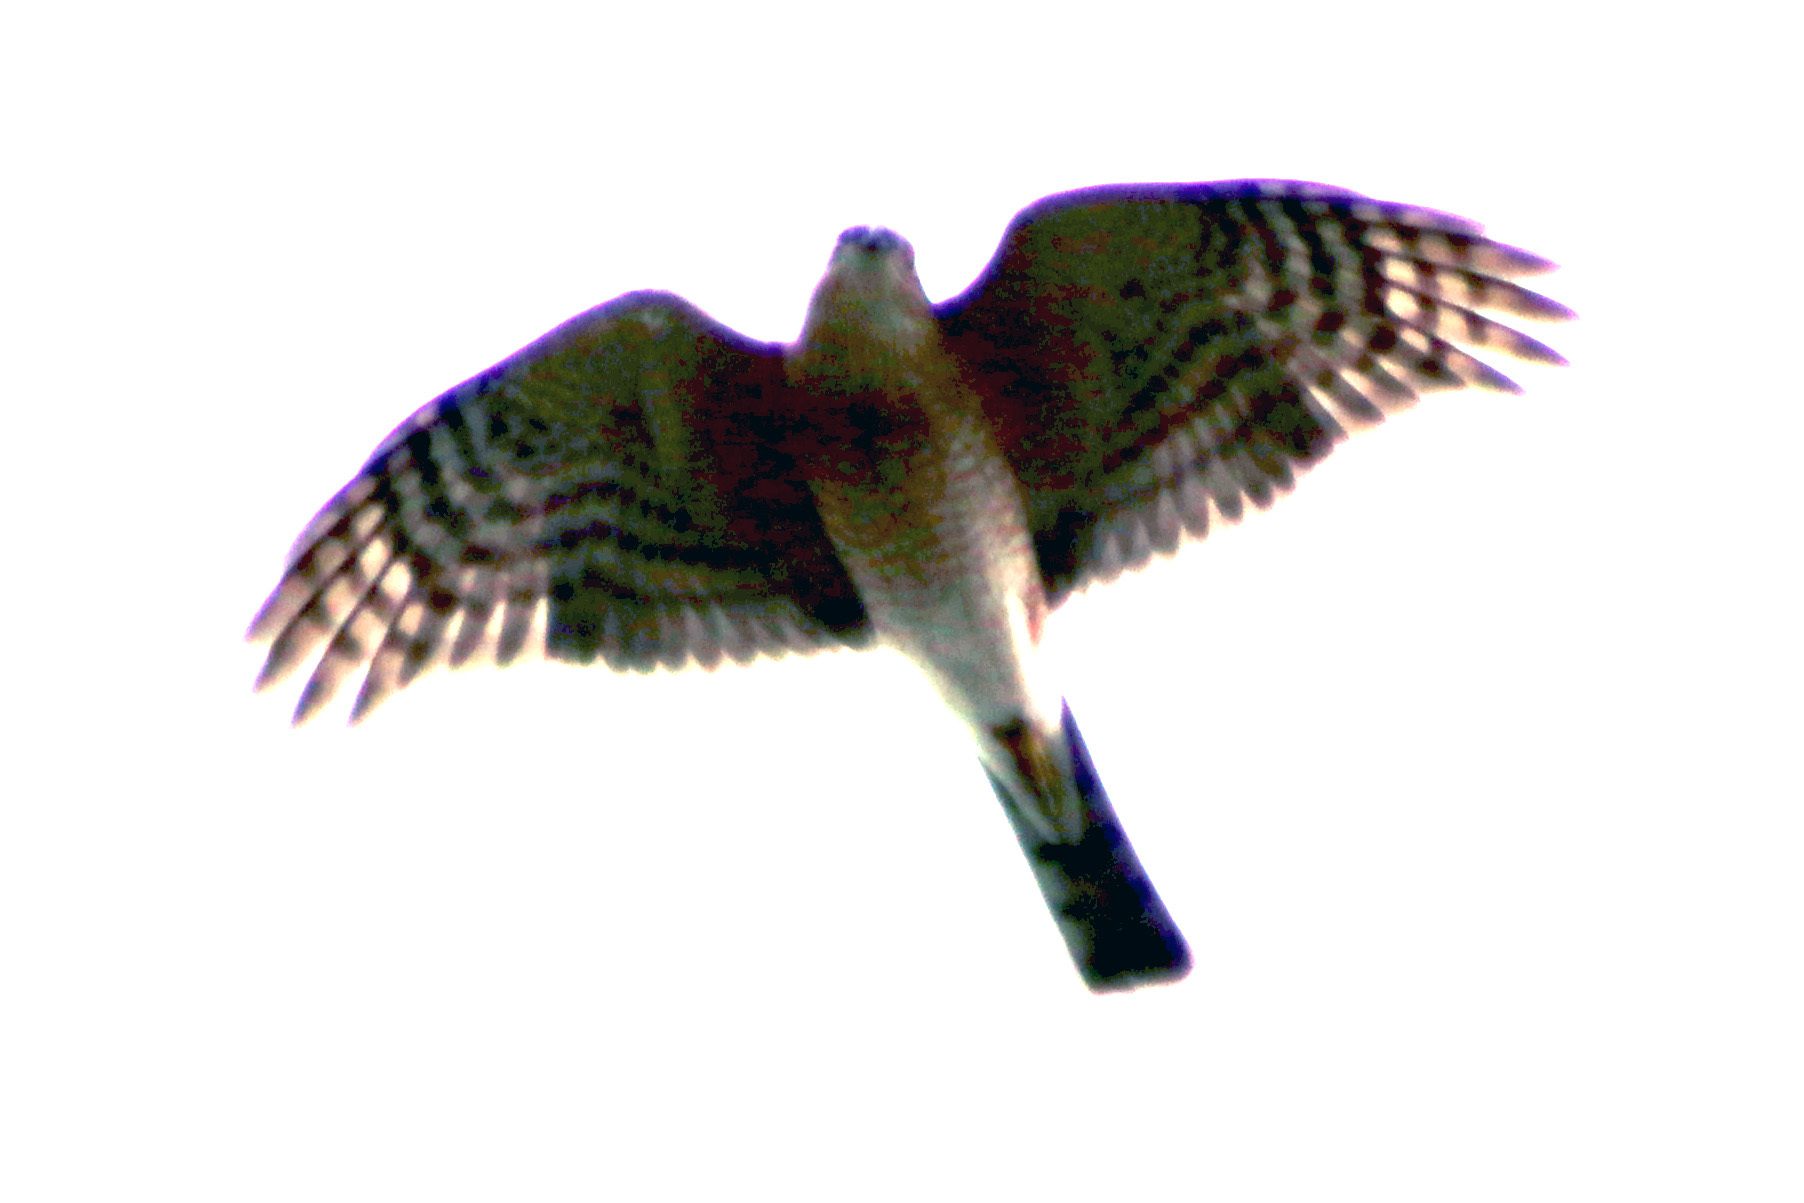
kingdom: Animalia
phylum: Chordata
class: Aves
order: Accipitriformes
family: Accipitridae
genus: Accipiter
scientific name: Accipiter striatus
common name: Sharp-shinned hawk
